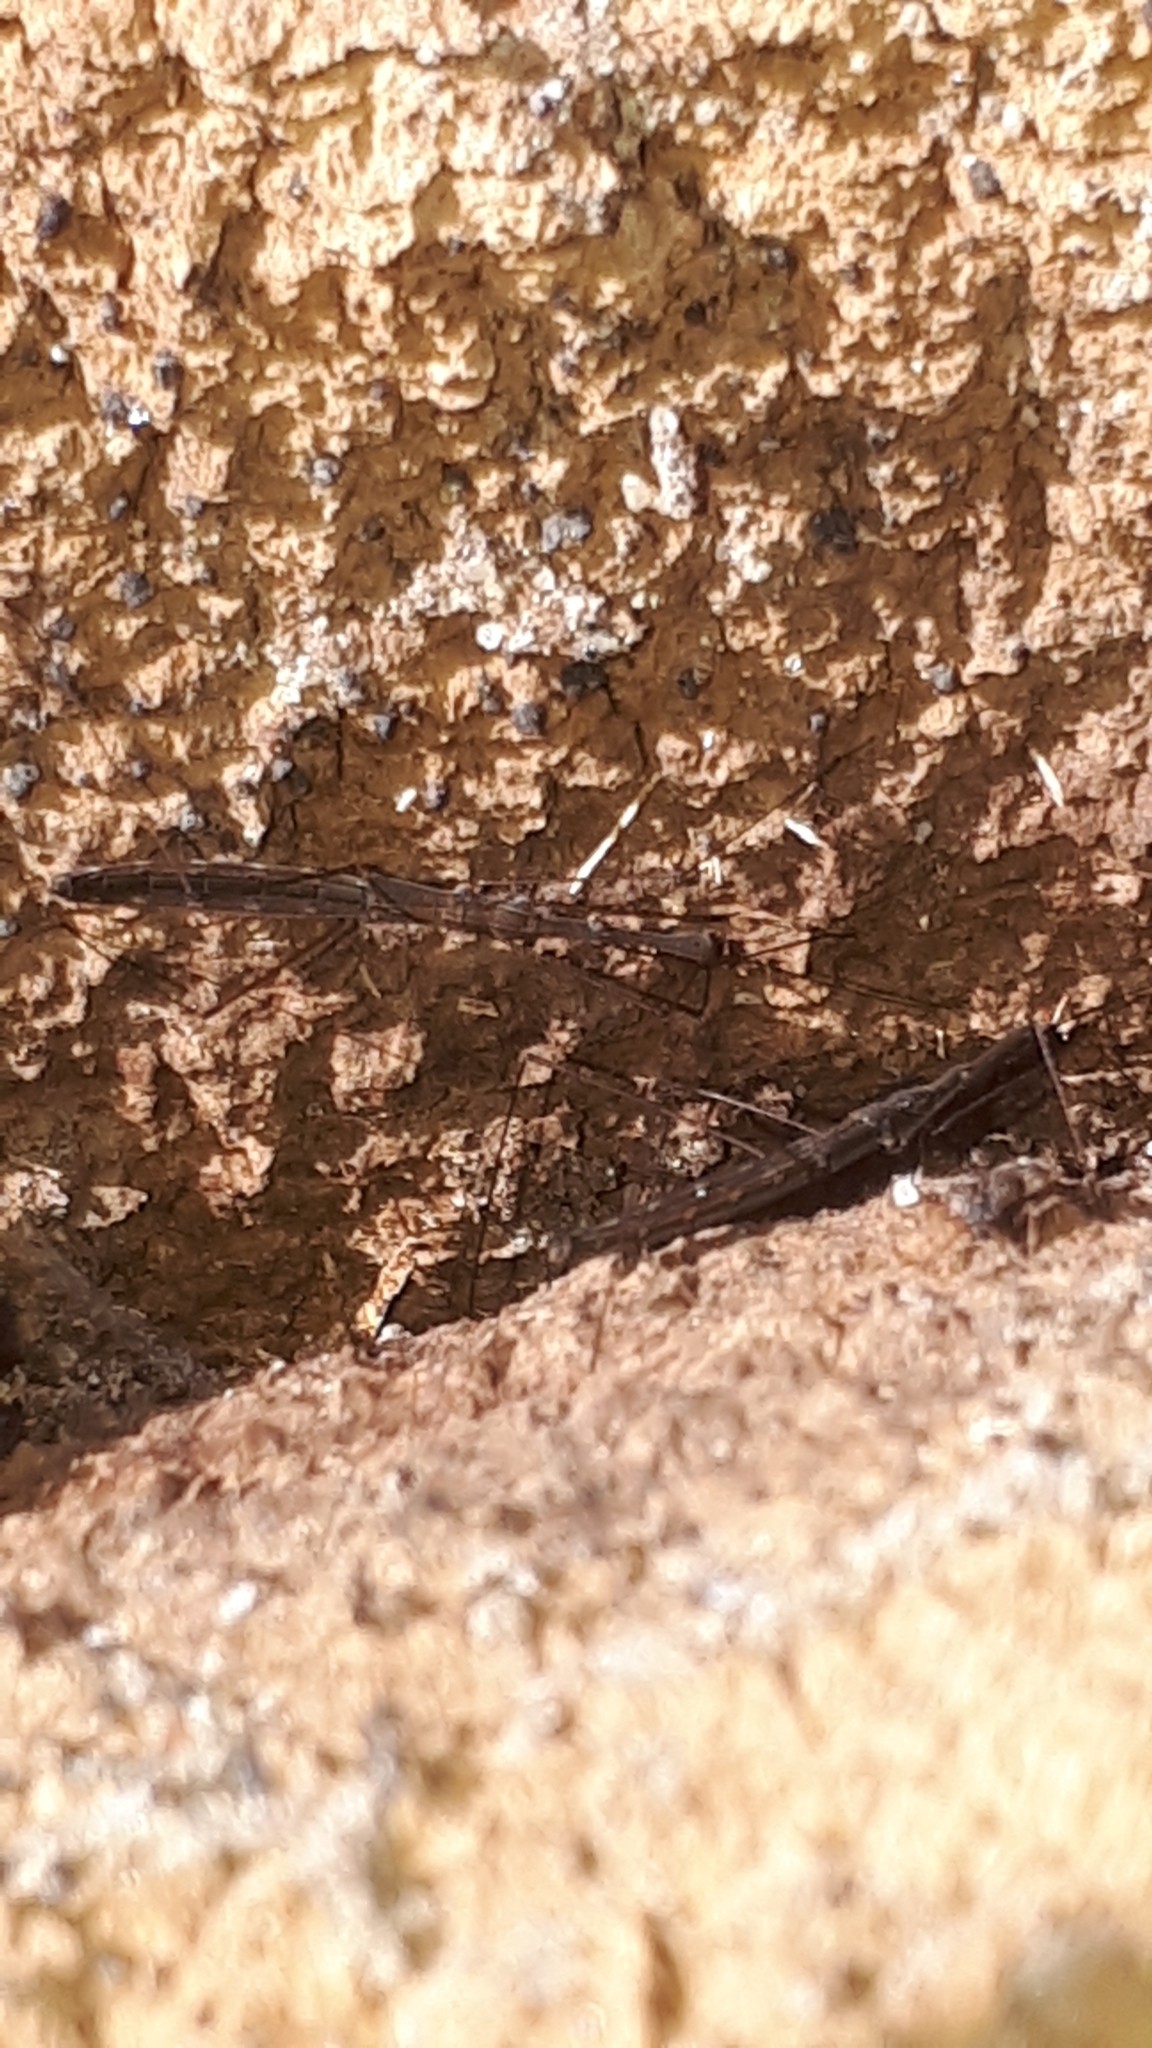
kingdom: Animalia
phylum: Arthropoda
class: Insecta
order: Hemiptera
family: Hydrometridae
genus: Hydrometra
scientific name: Hydrometra stagnorum
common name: Water measurer
